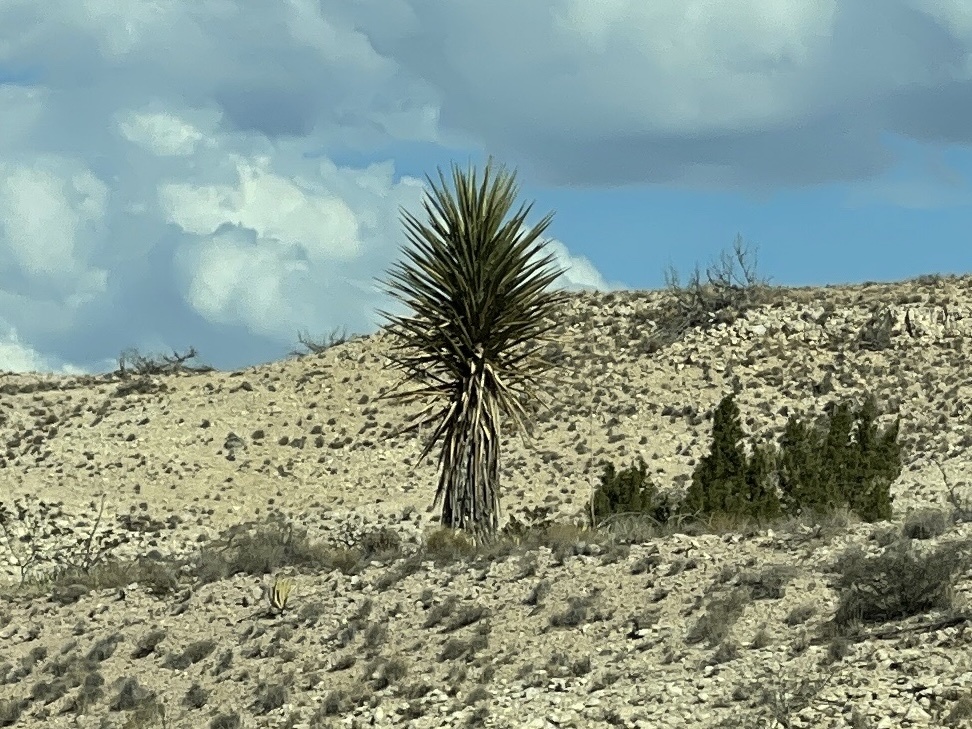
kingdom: Plantae
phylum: Tracheophyta
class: Liliopsida
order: Asparagales
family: Asparagaceae
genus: Yucca
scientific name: Yucca treculiana
